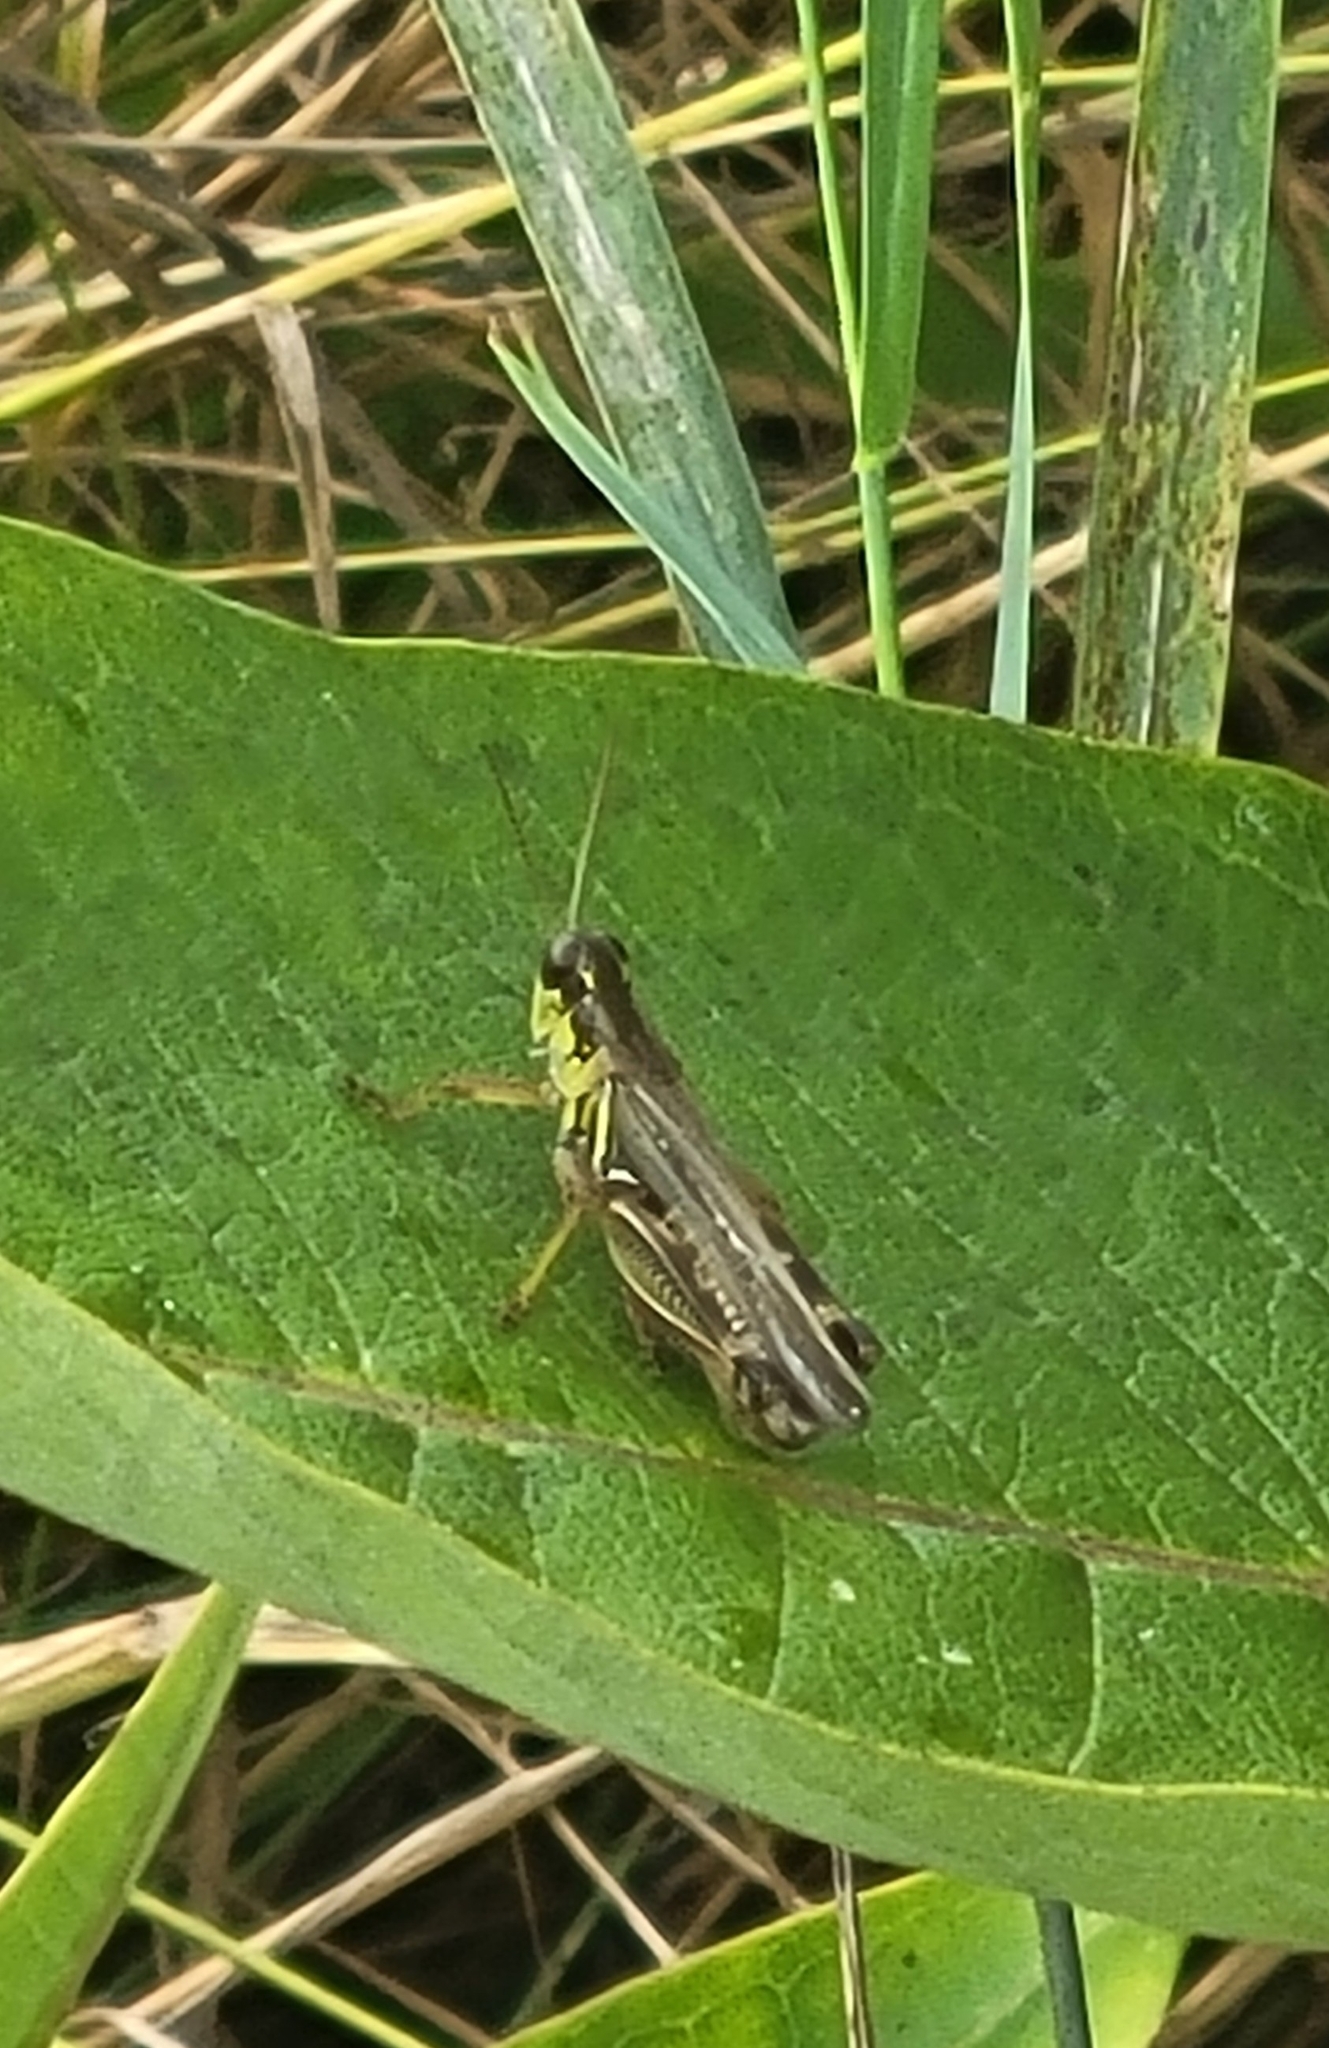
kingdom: Animalia
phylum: Arthropoda
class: Insecta
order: Orthoptera
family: Acrididae
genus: Melanoplus
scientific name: Melanoplus femurrubrum
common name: Red-legged grasshopper
